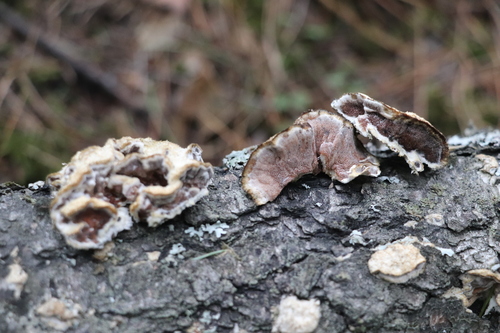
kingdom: Fungi
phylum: Basidiomycota
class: Agaricomycetes
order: Polyporales
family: Irpicaceae
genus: Vitreoporus
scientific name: Vitreoporus dichrous
